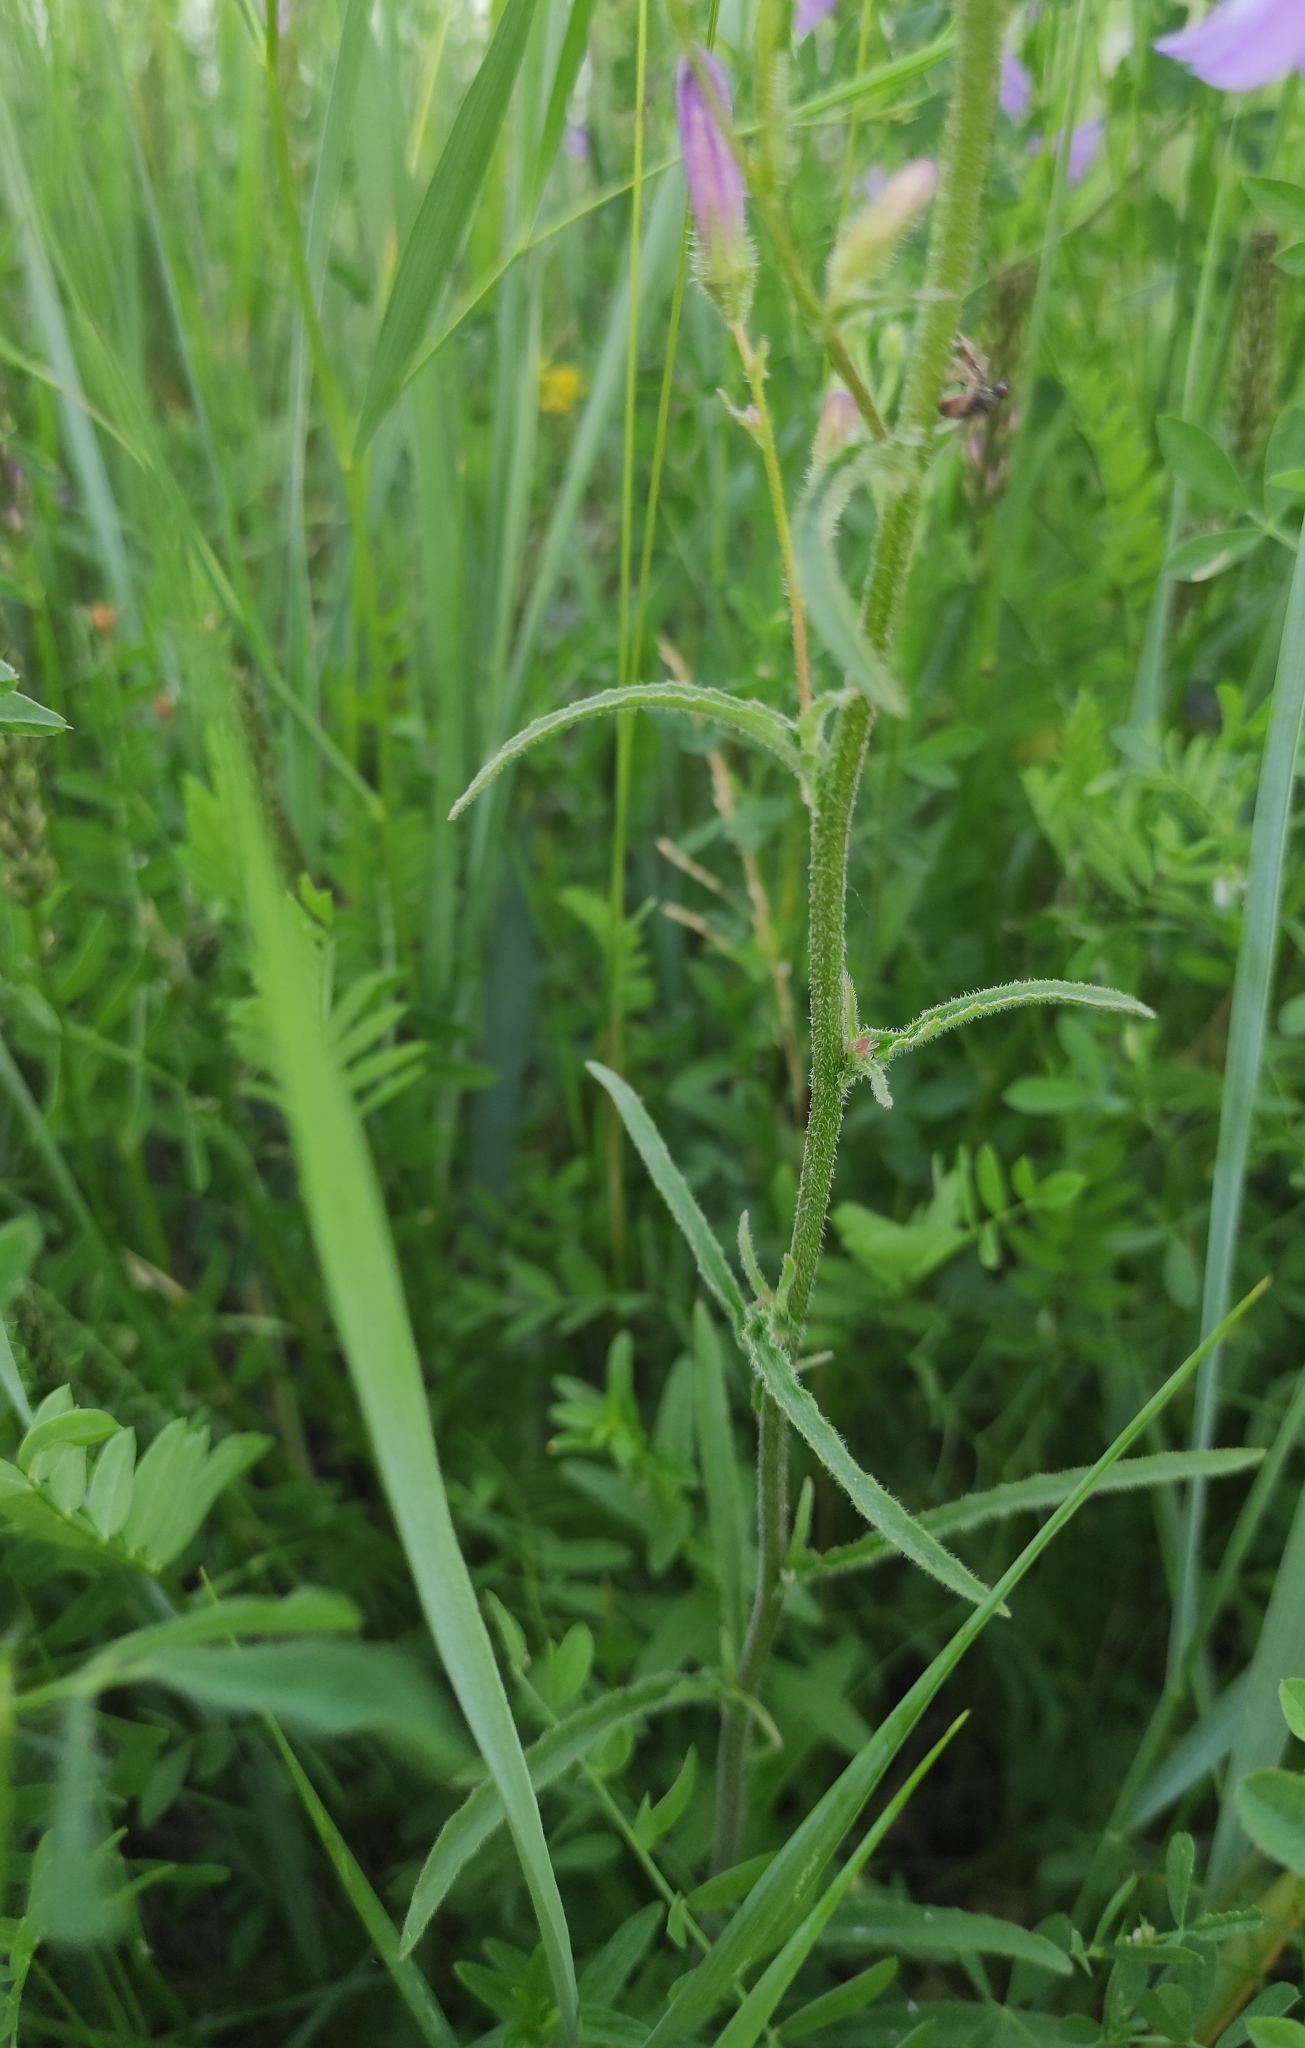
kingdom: Plantae
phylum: Tracheophyta
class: Magnoliopsida
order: Asterales
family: Campanulaceae
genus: Campanula
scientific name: Campanula sibirica
